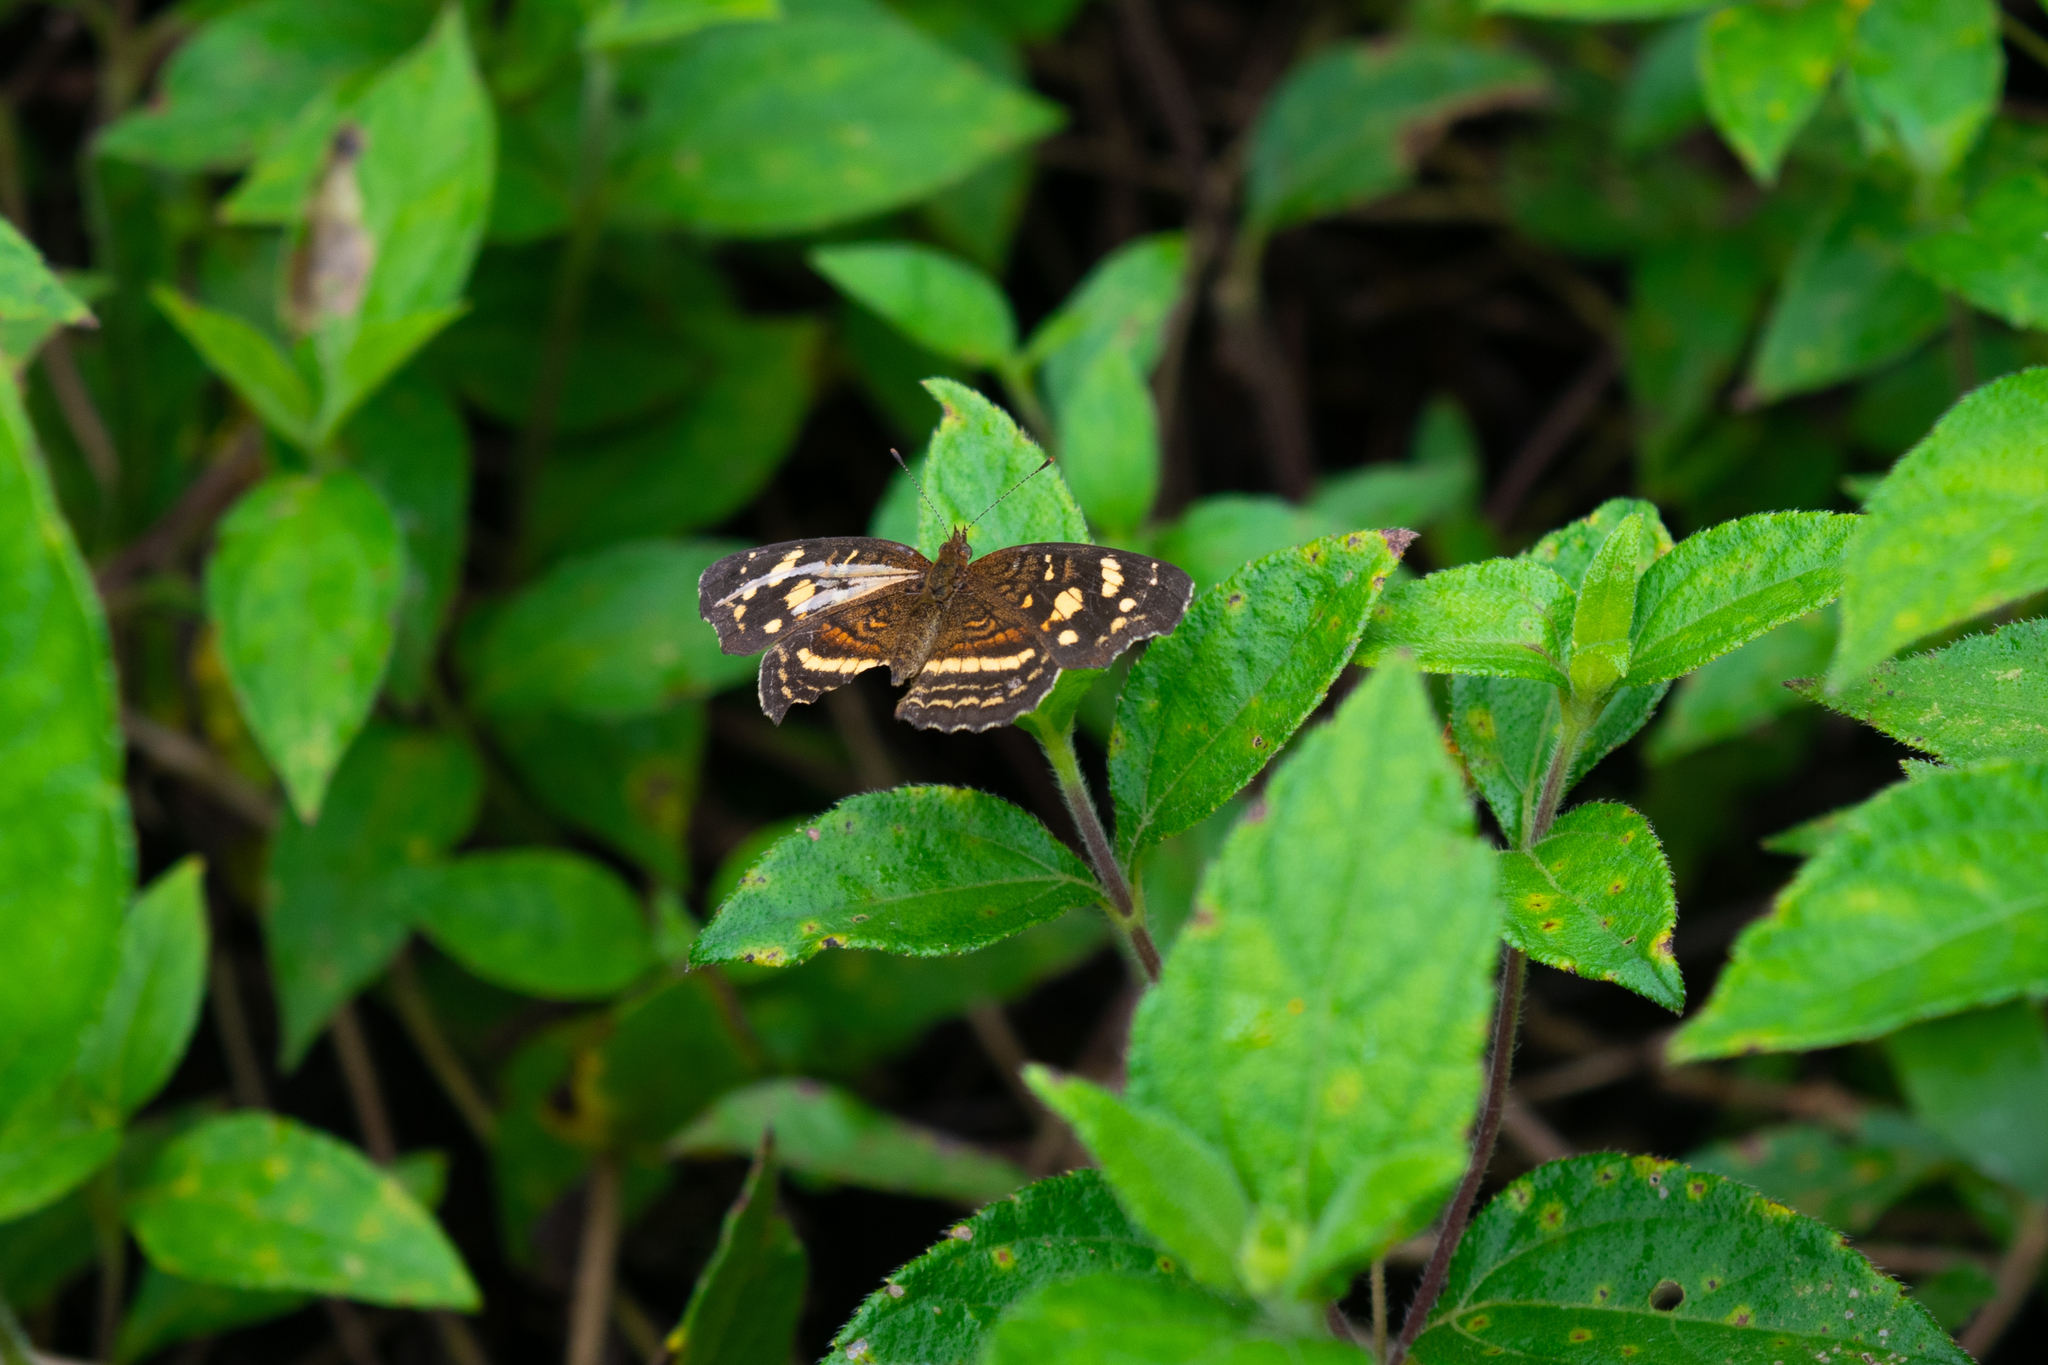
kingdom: Animalia
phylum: Arthropoda
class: Insecta
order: Lepidoptera
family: Nymphalidae
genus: Anthanassa
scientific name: Anthanassa tulcis
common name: Pale-banded crescent
